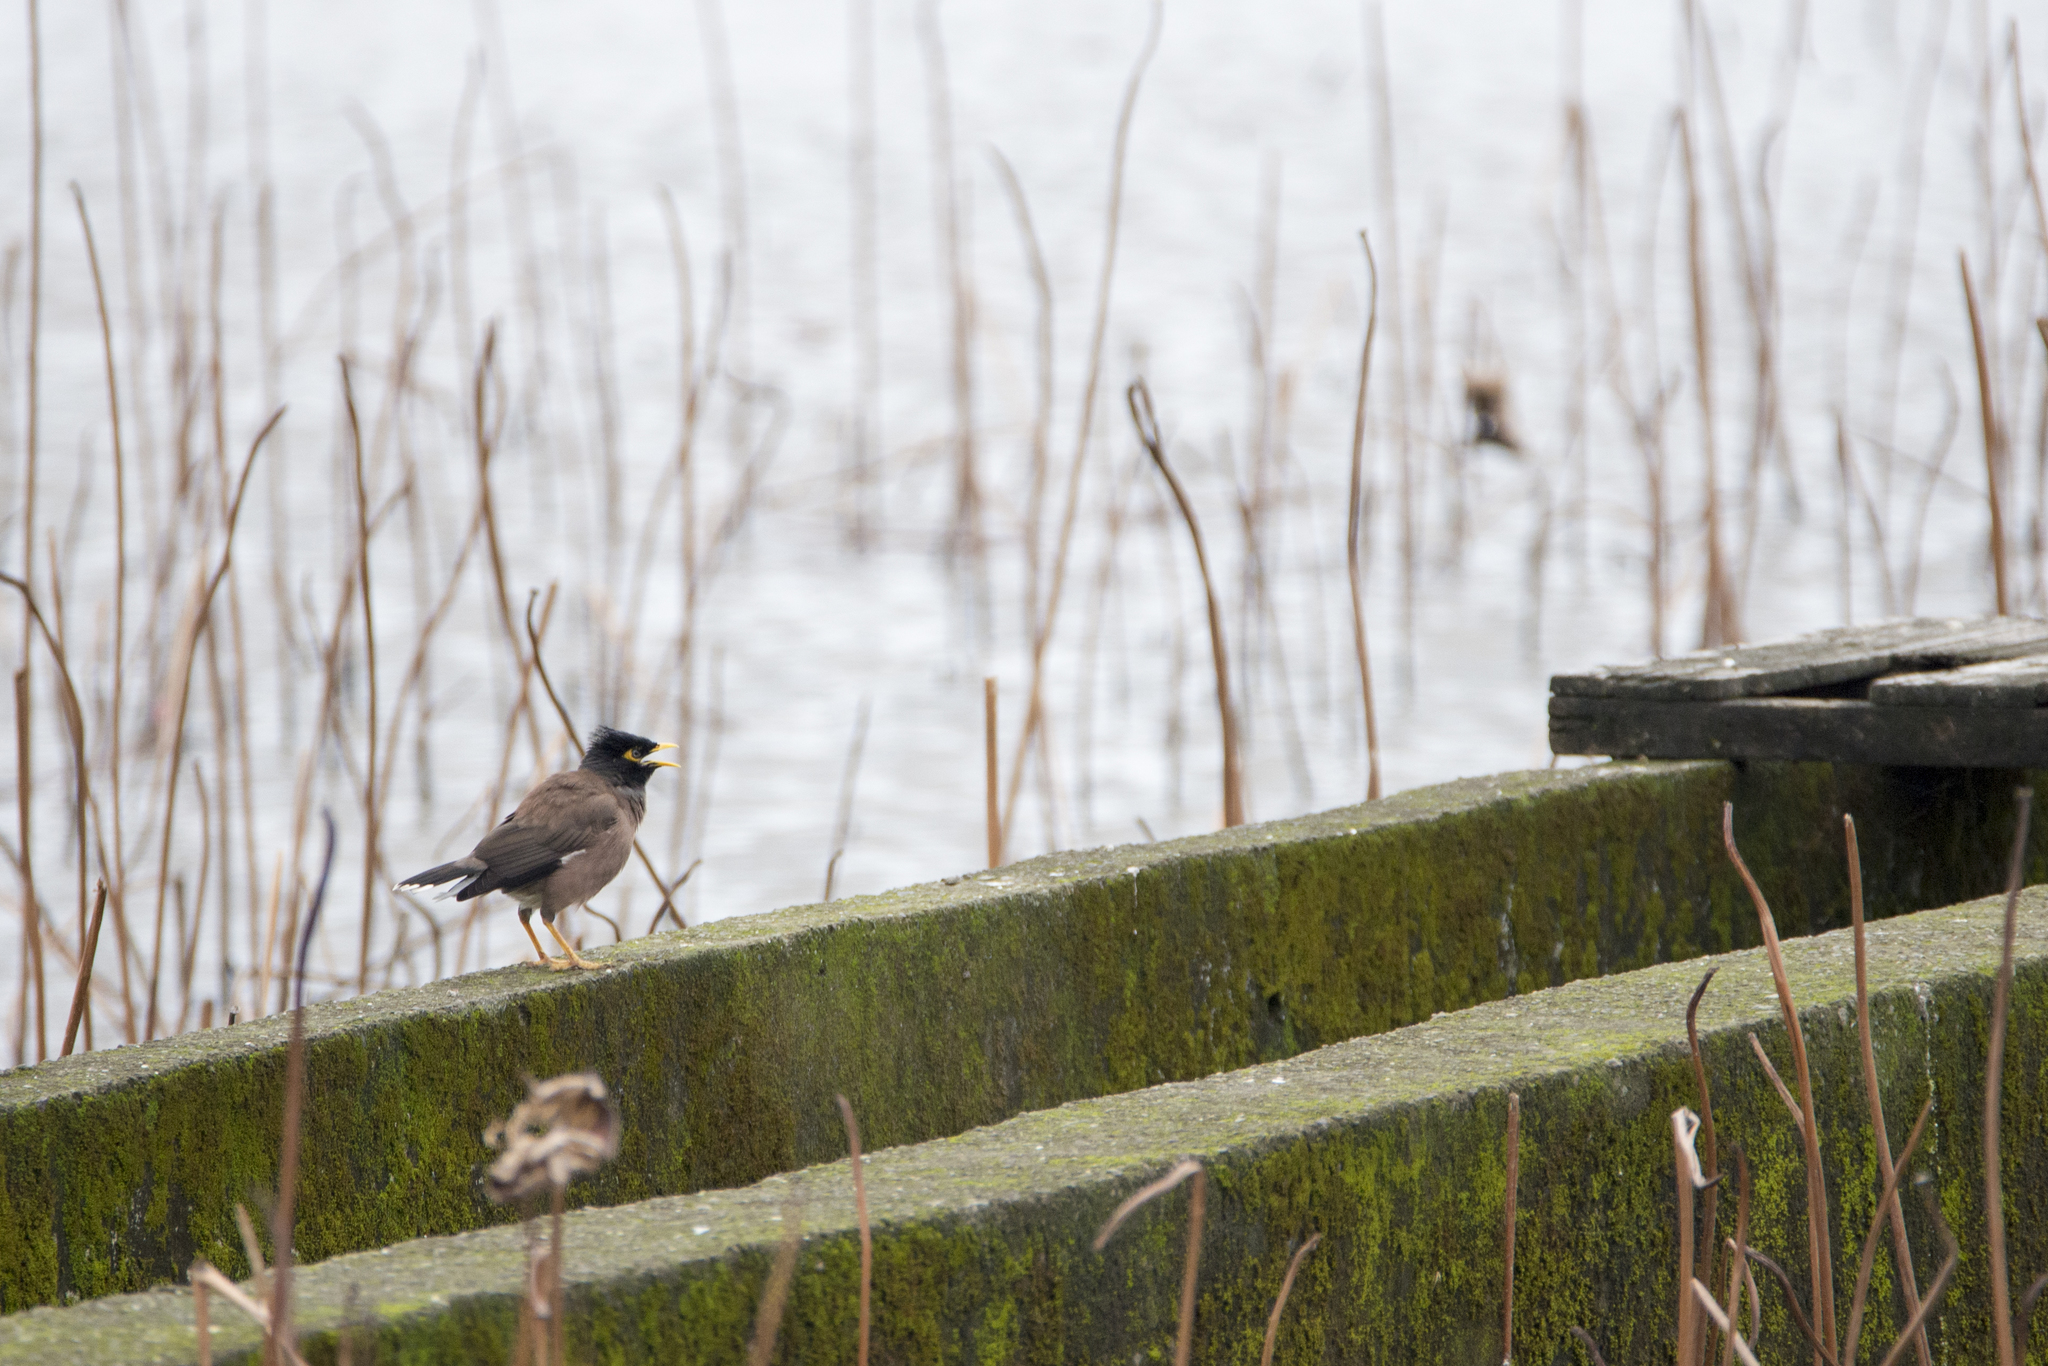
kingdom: Animalia
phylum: Chordata
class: Aves
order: Passeriformes
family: Sturnidae
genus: Acridotheres
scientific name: Acridotheres tristis
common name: Common myna
